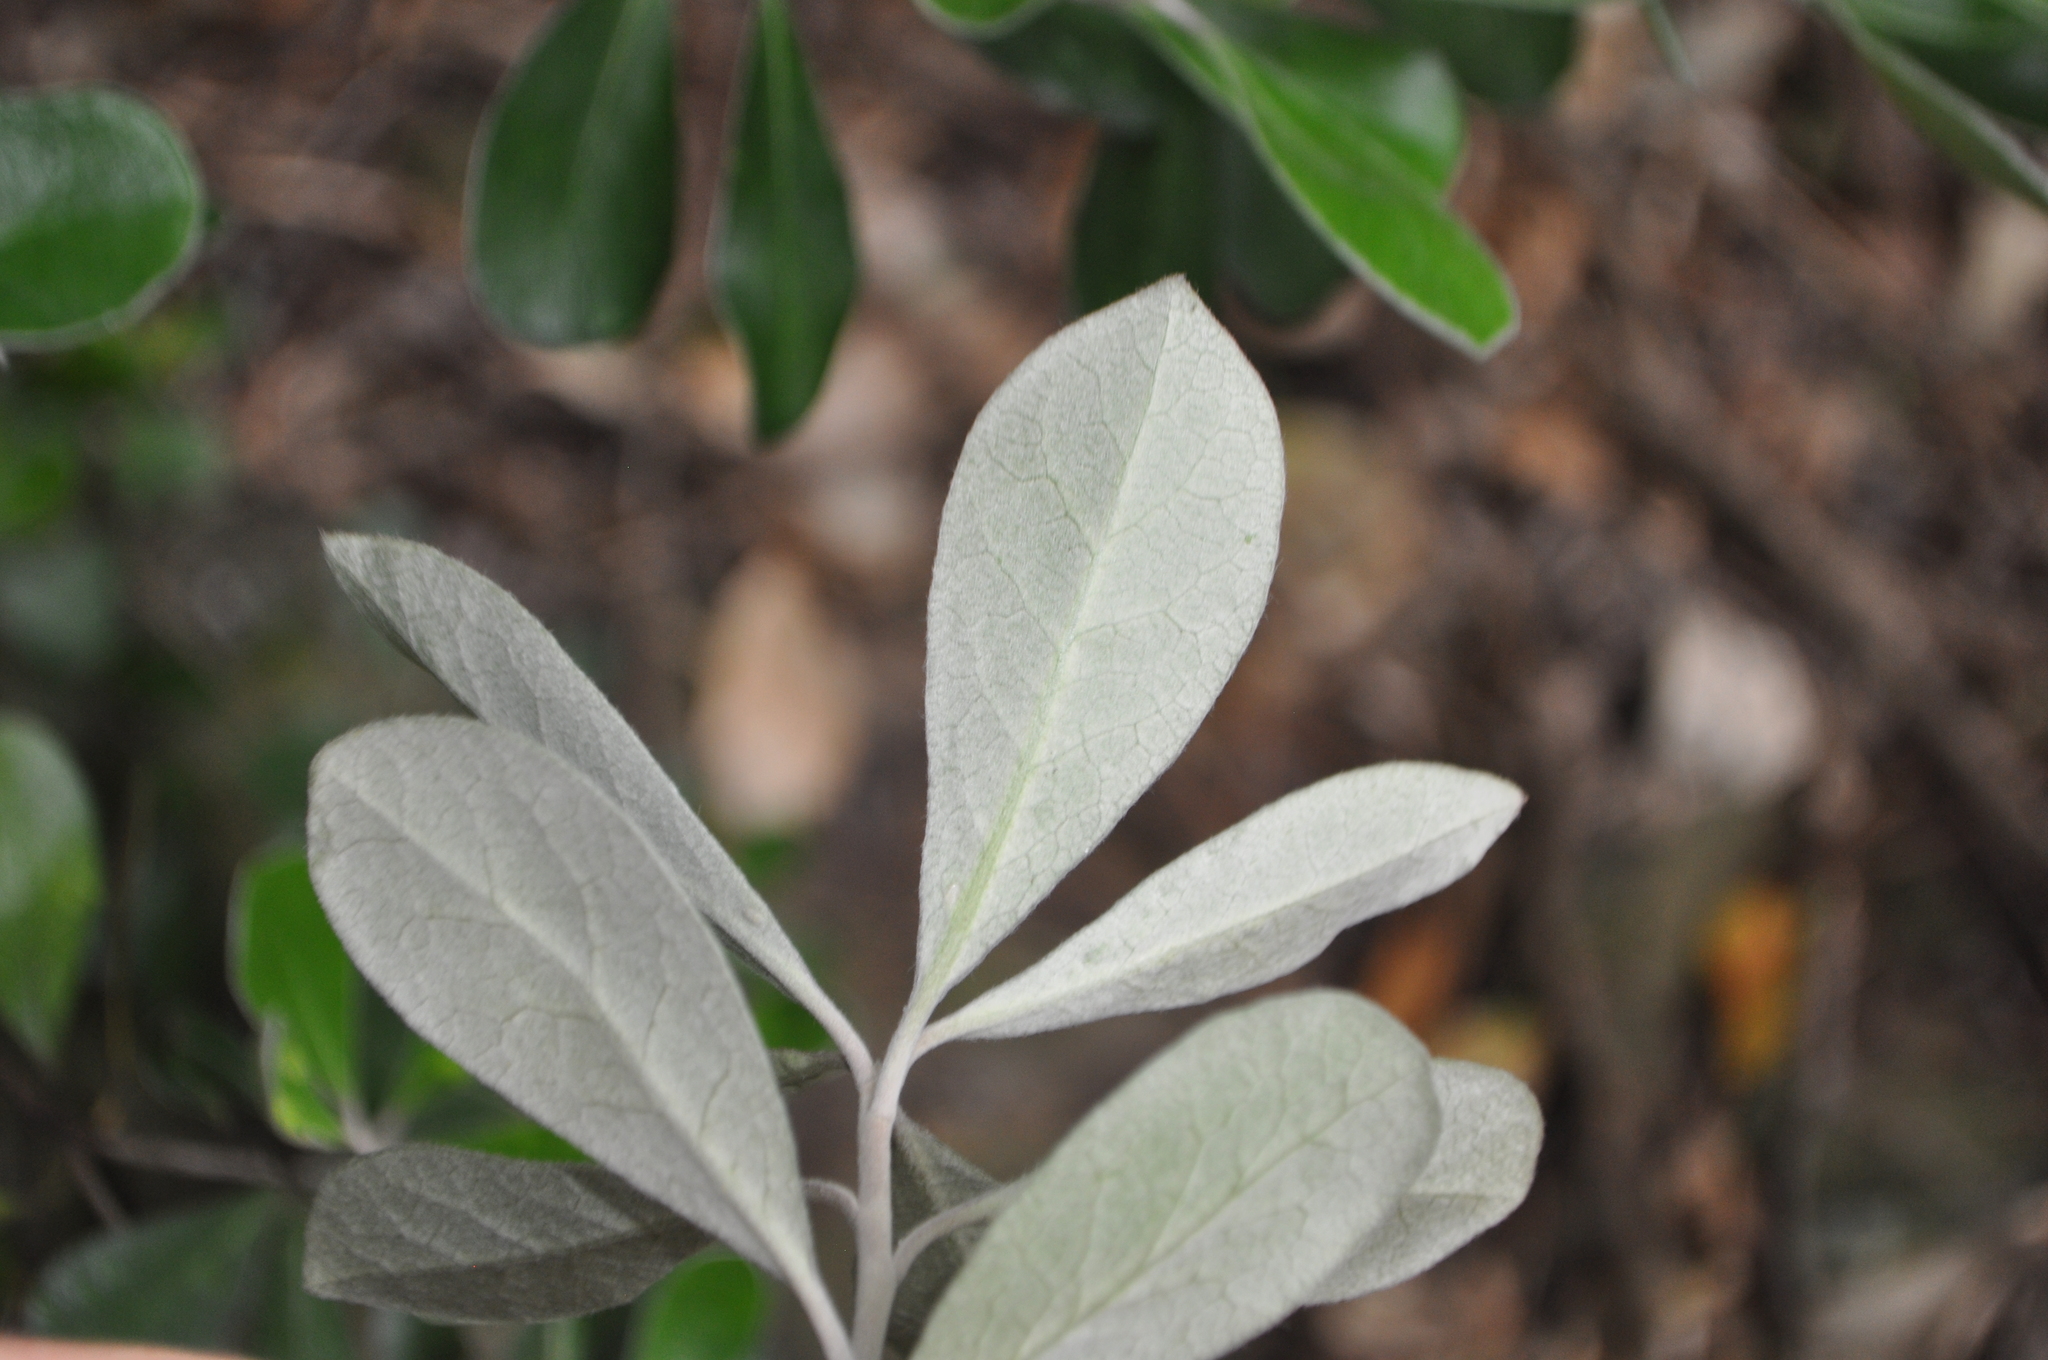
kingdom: Plantae
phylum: Tracheophyta
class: Magnoliopsida
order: Apiales
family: Pittosporaceae
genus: Pittosporum
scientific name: Pittosporum crassifolium
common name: Karo
